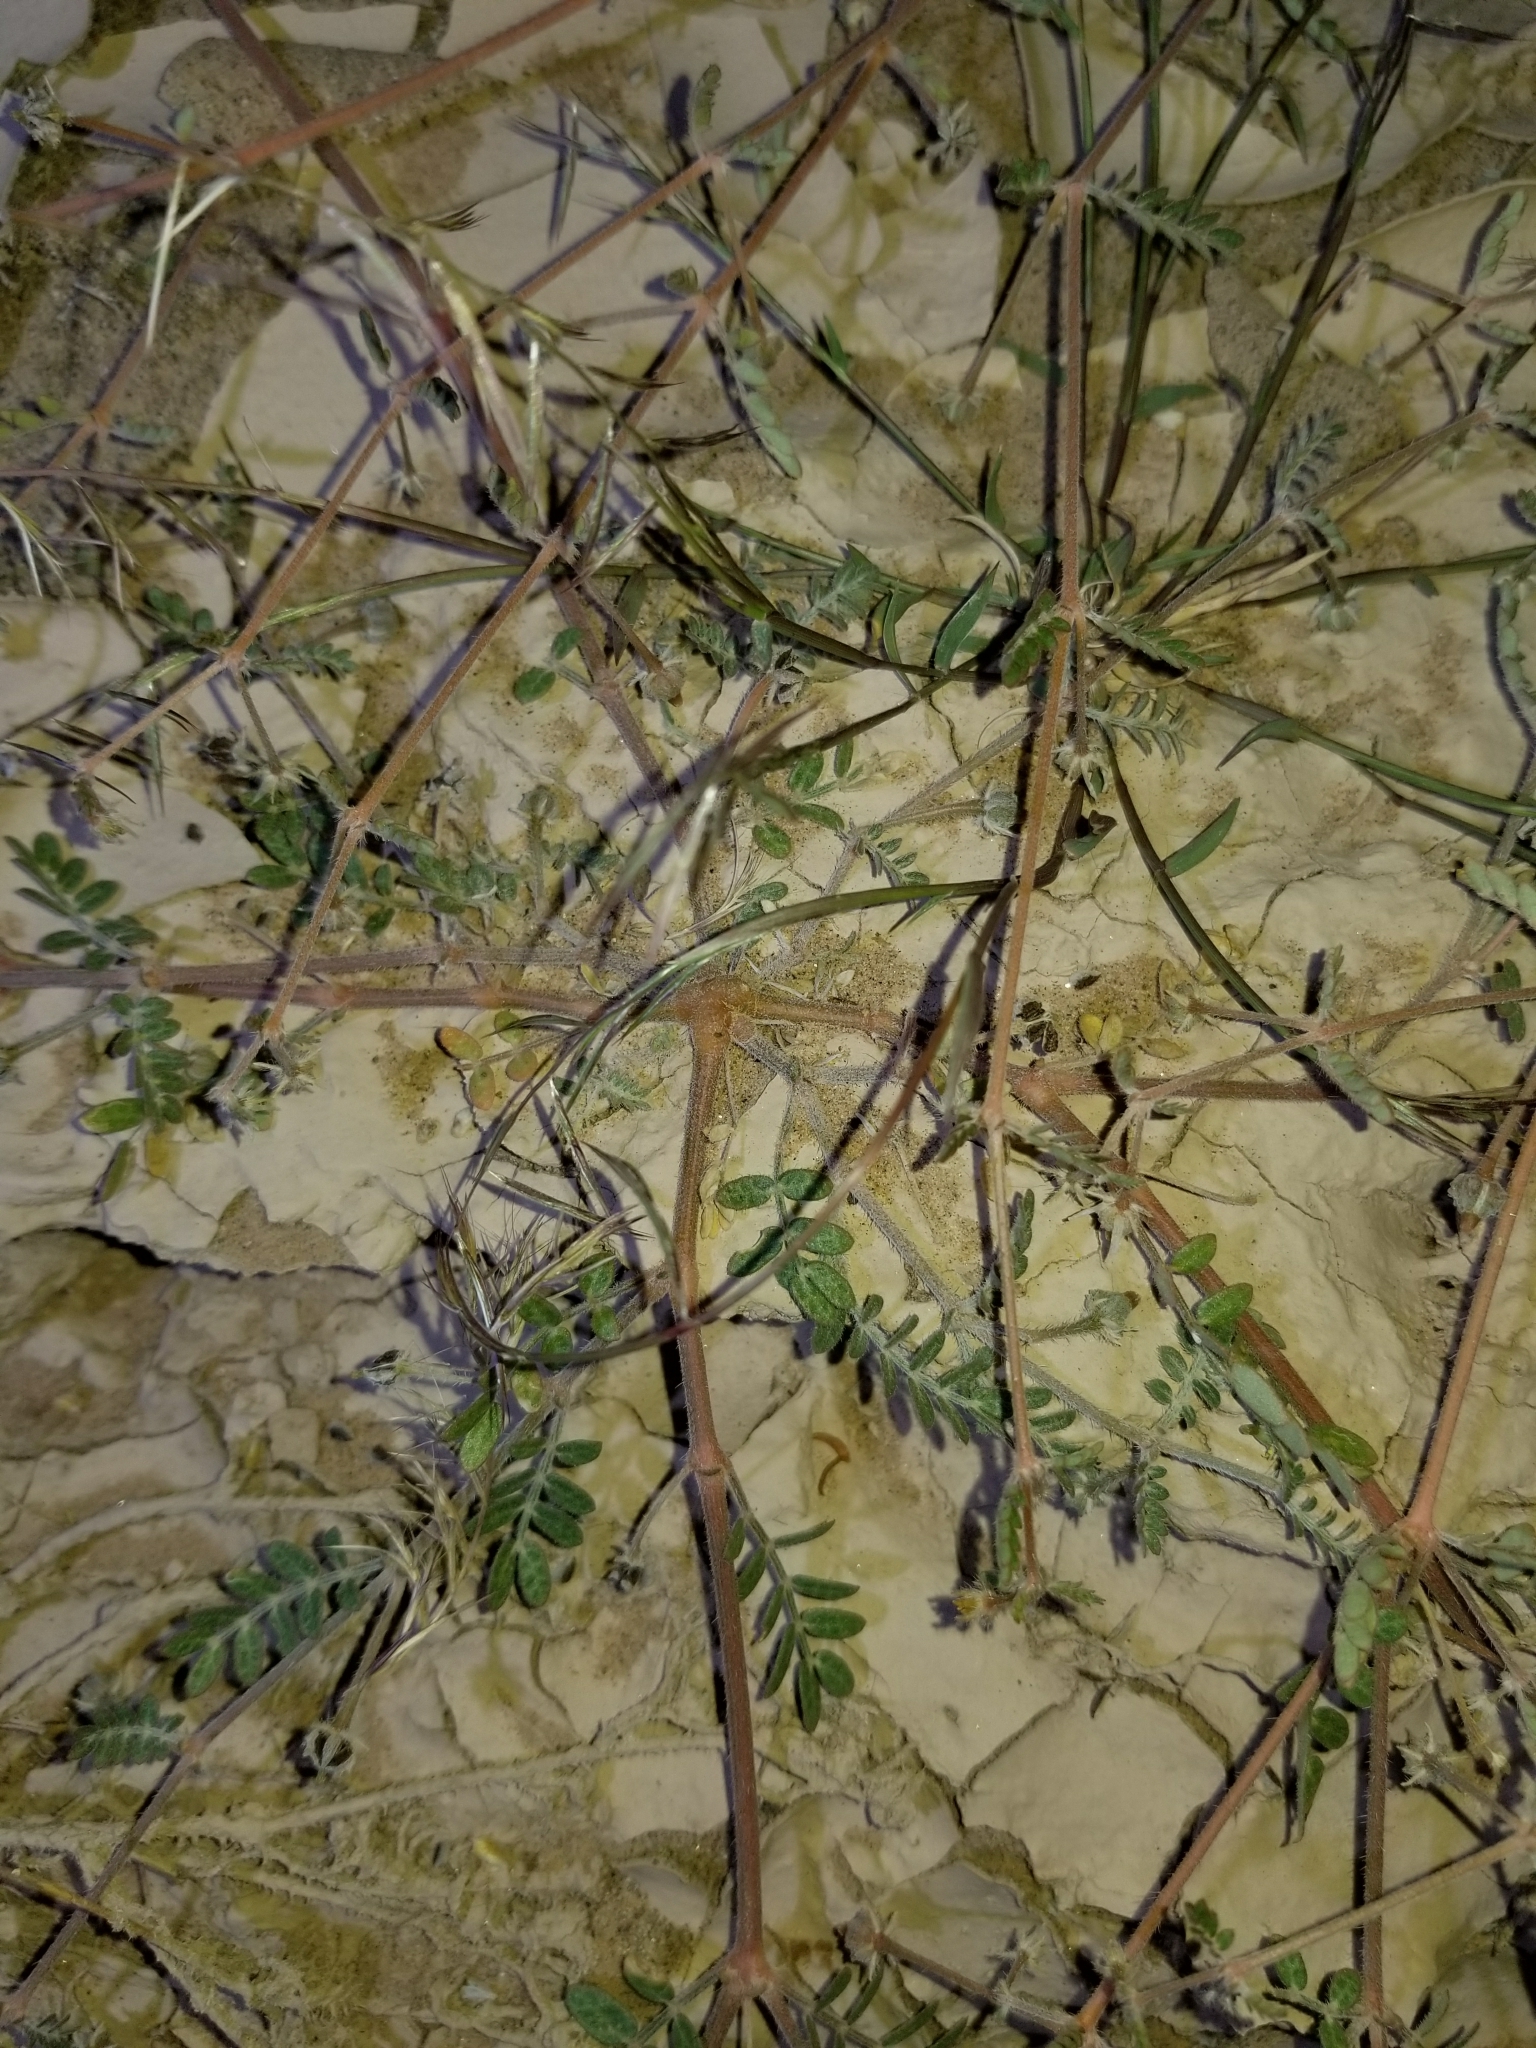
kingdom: Plantae
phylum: Tracheophyta
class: Magnoliopsida
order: Zygophyllales
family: Zygophyllaceae
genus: Kallstroemia
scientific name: Kallstroemia californica
